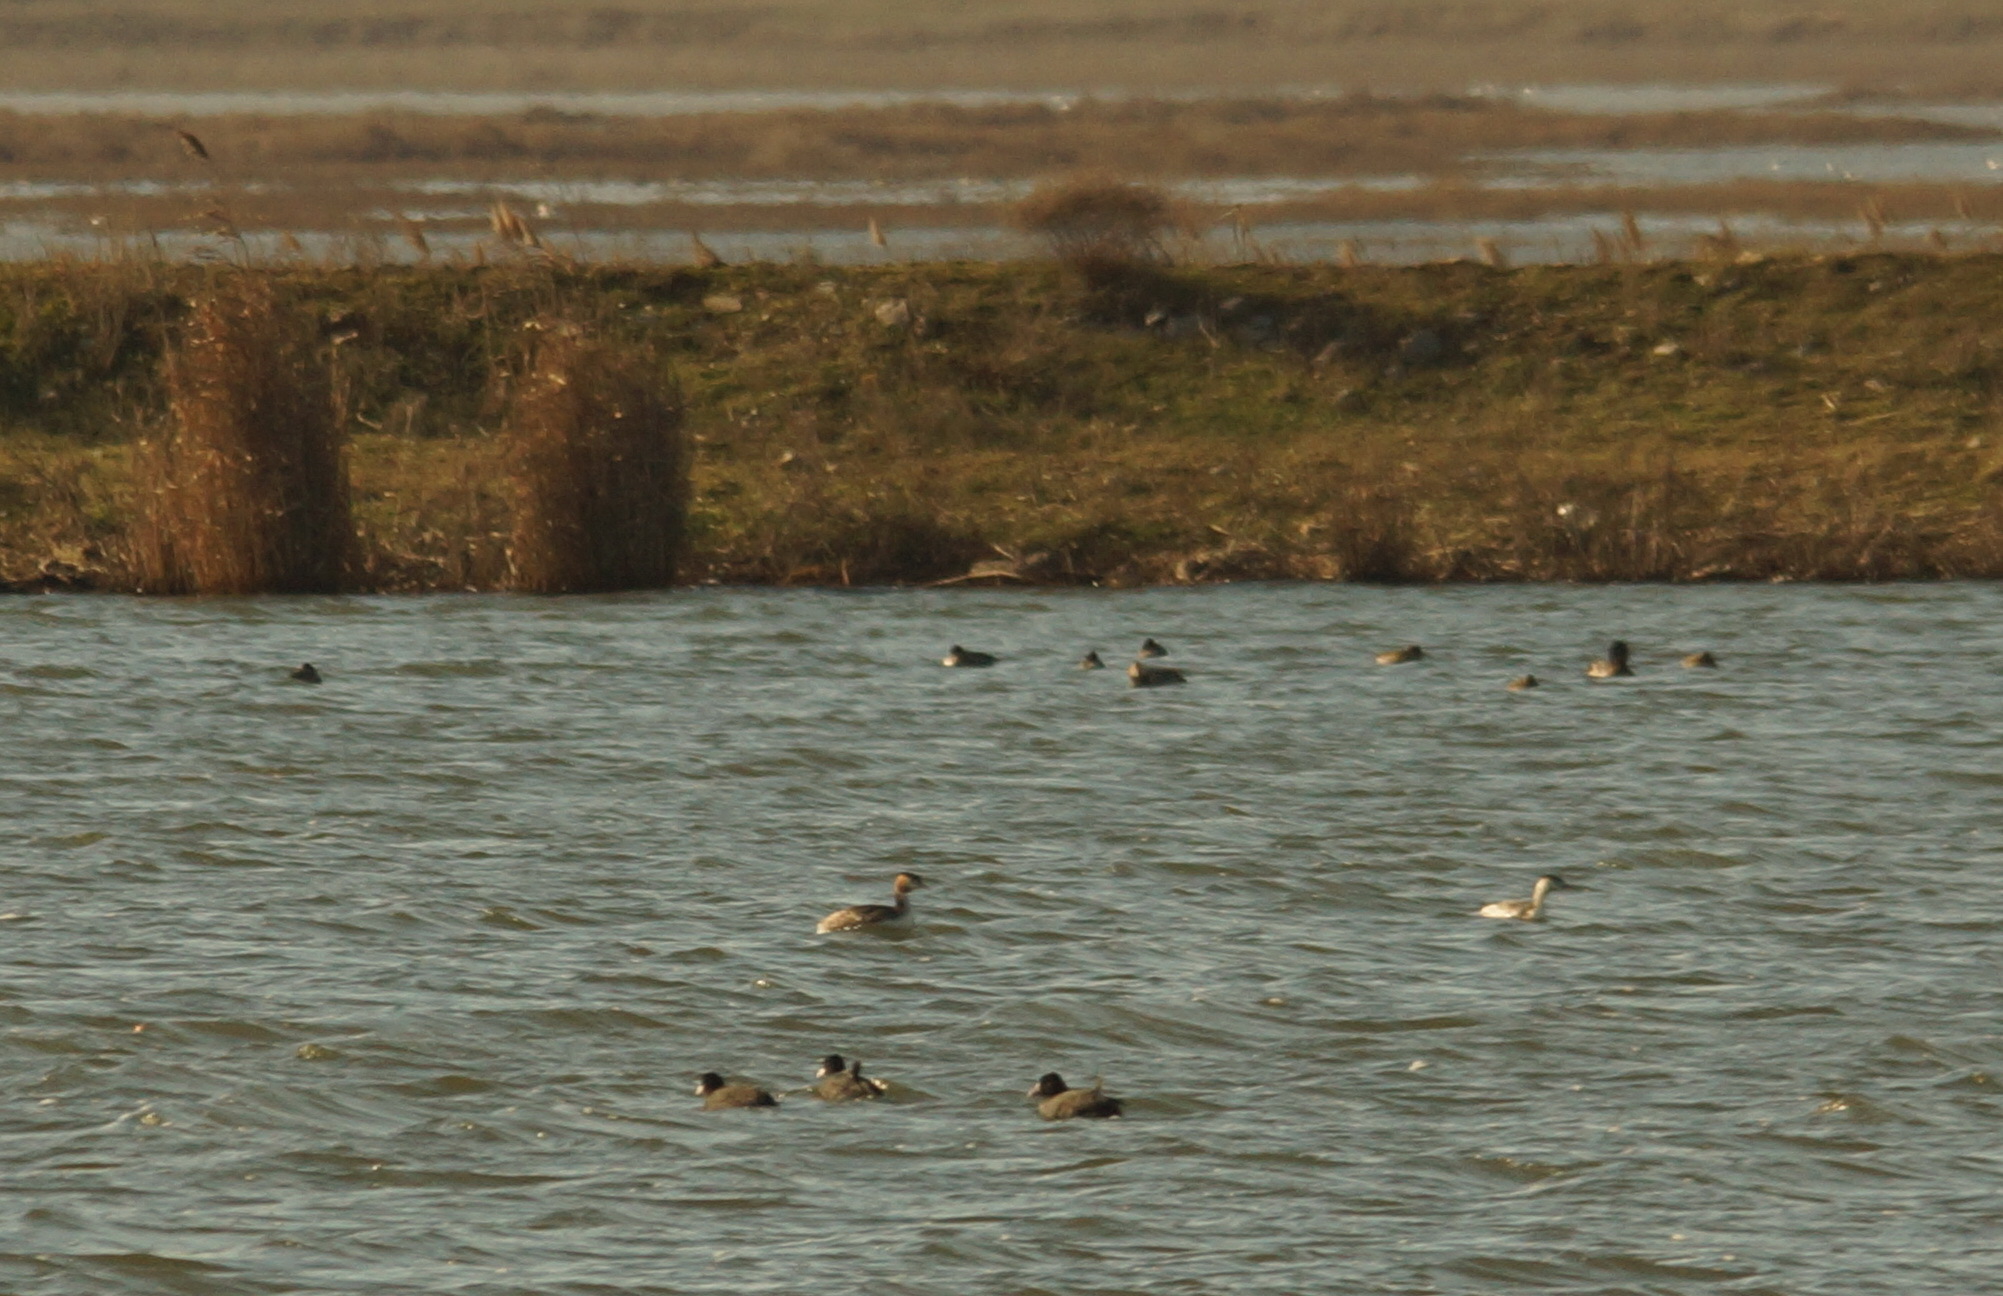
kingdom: Animalia
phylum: Chordata
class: Aves
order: Gruiformes
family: Rallidae
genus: Fulica
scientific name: Fulica atra
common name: Eurasian coot
